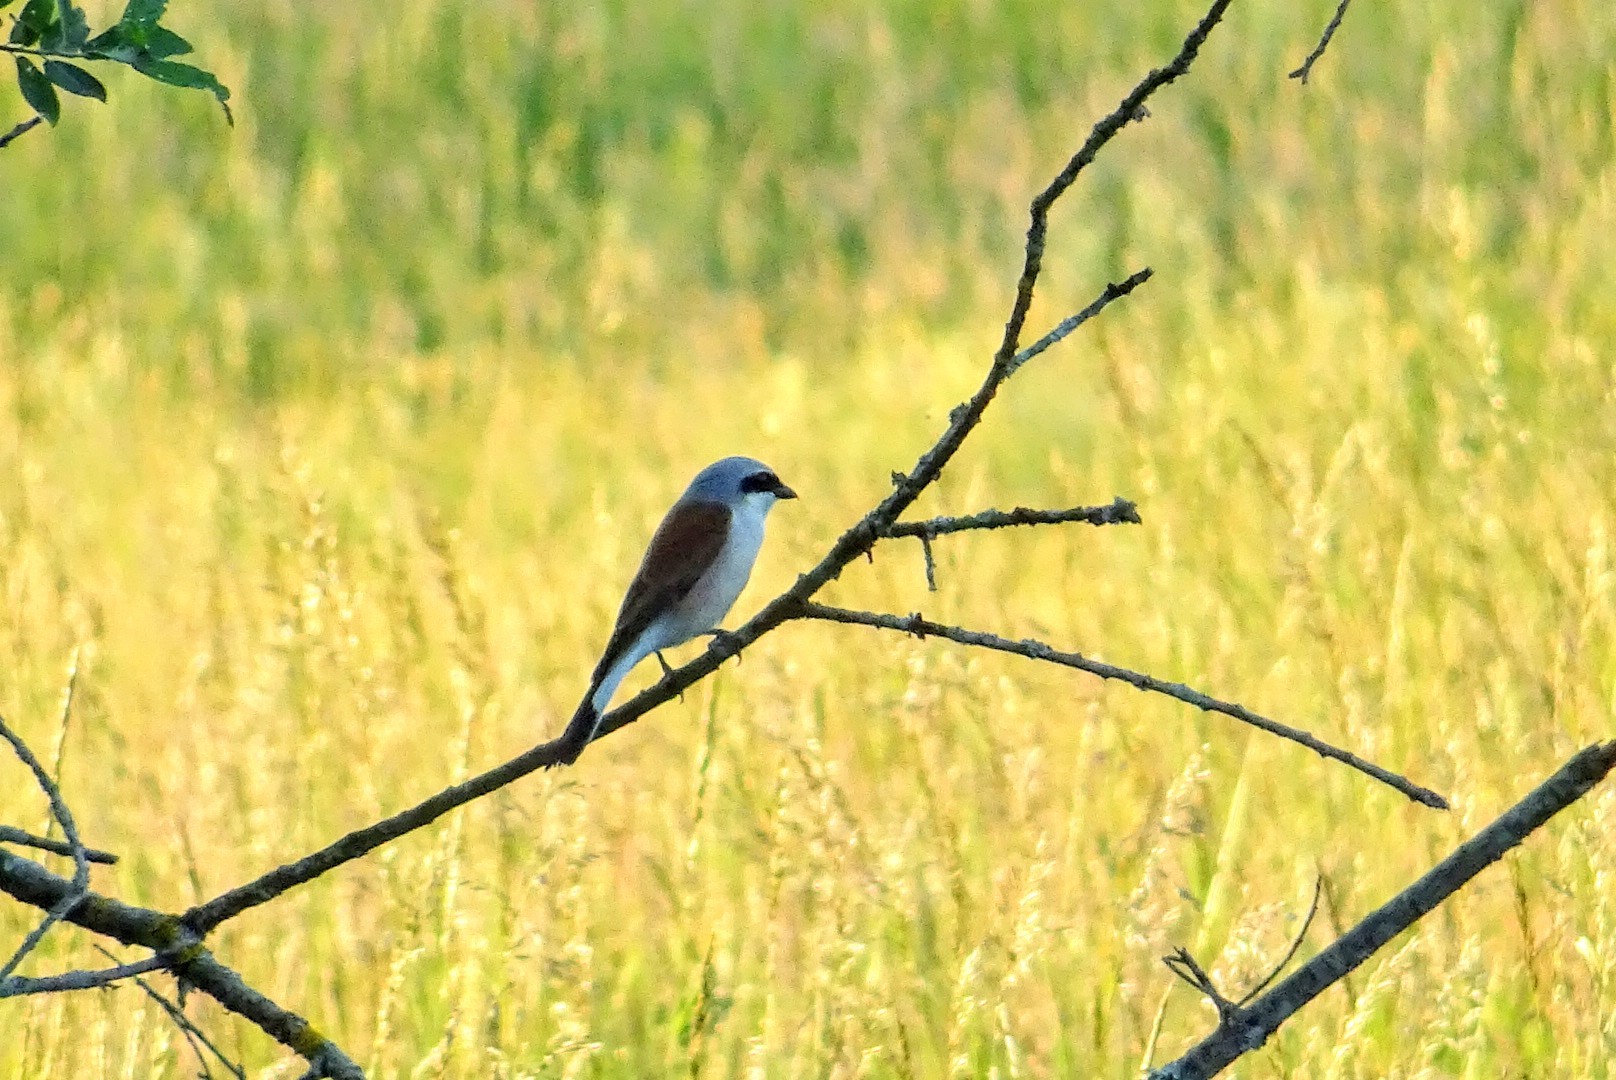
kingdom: Animalia
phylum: Chordata
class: Aves
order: Passeriformes
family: Laniidae
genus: Lanius
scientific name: Lanius collurio
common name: Red-backed shrike
